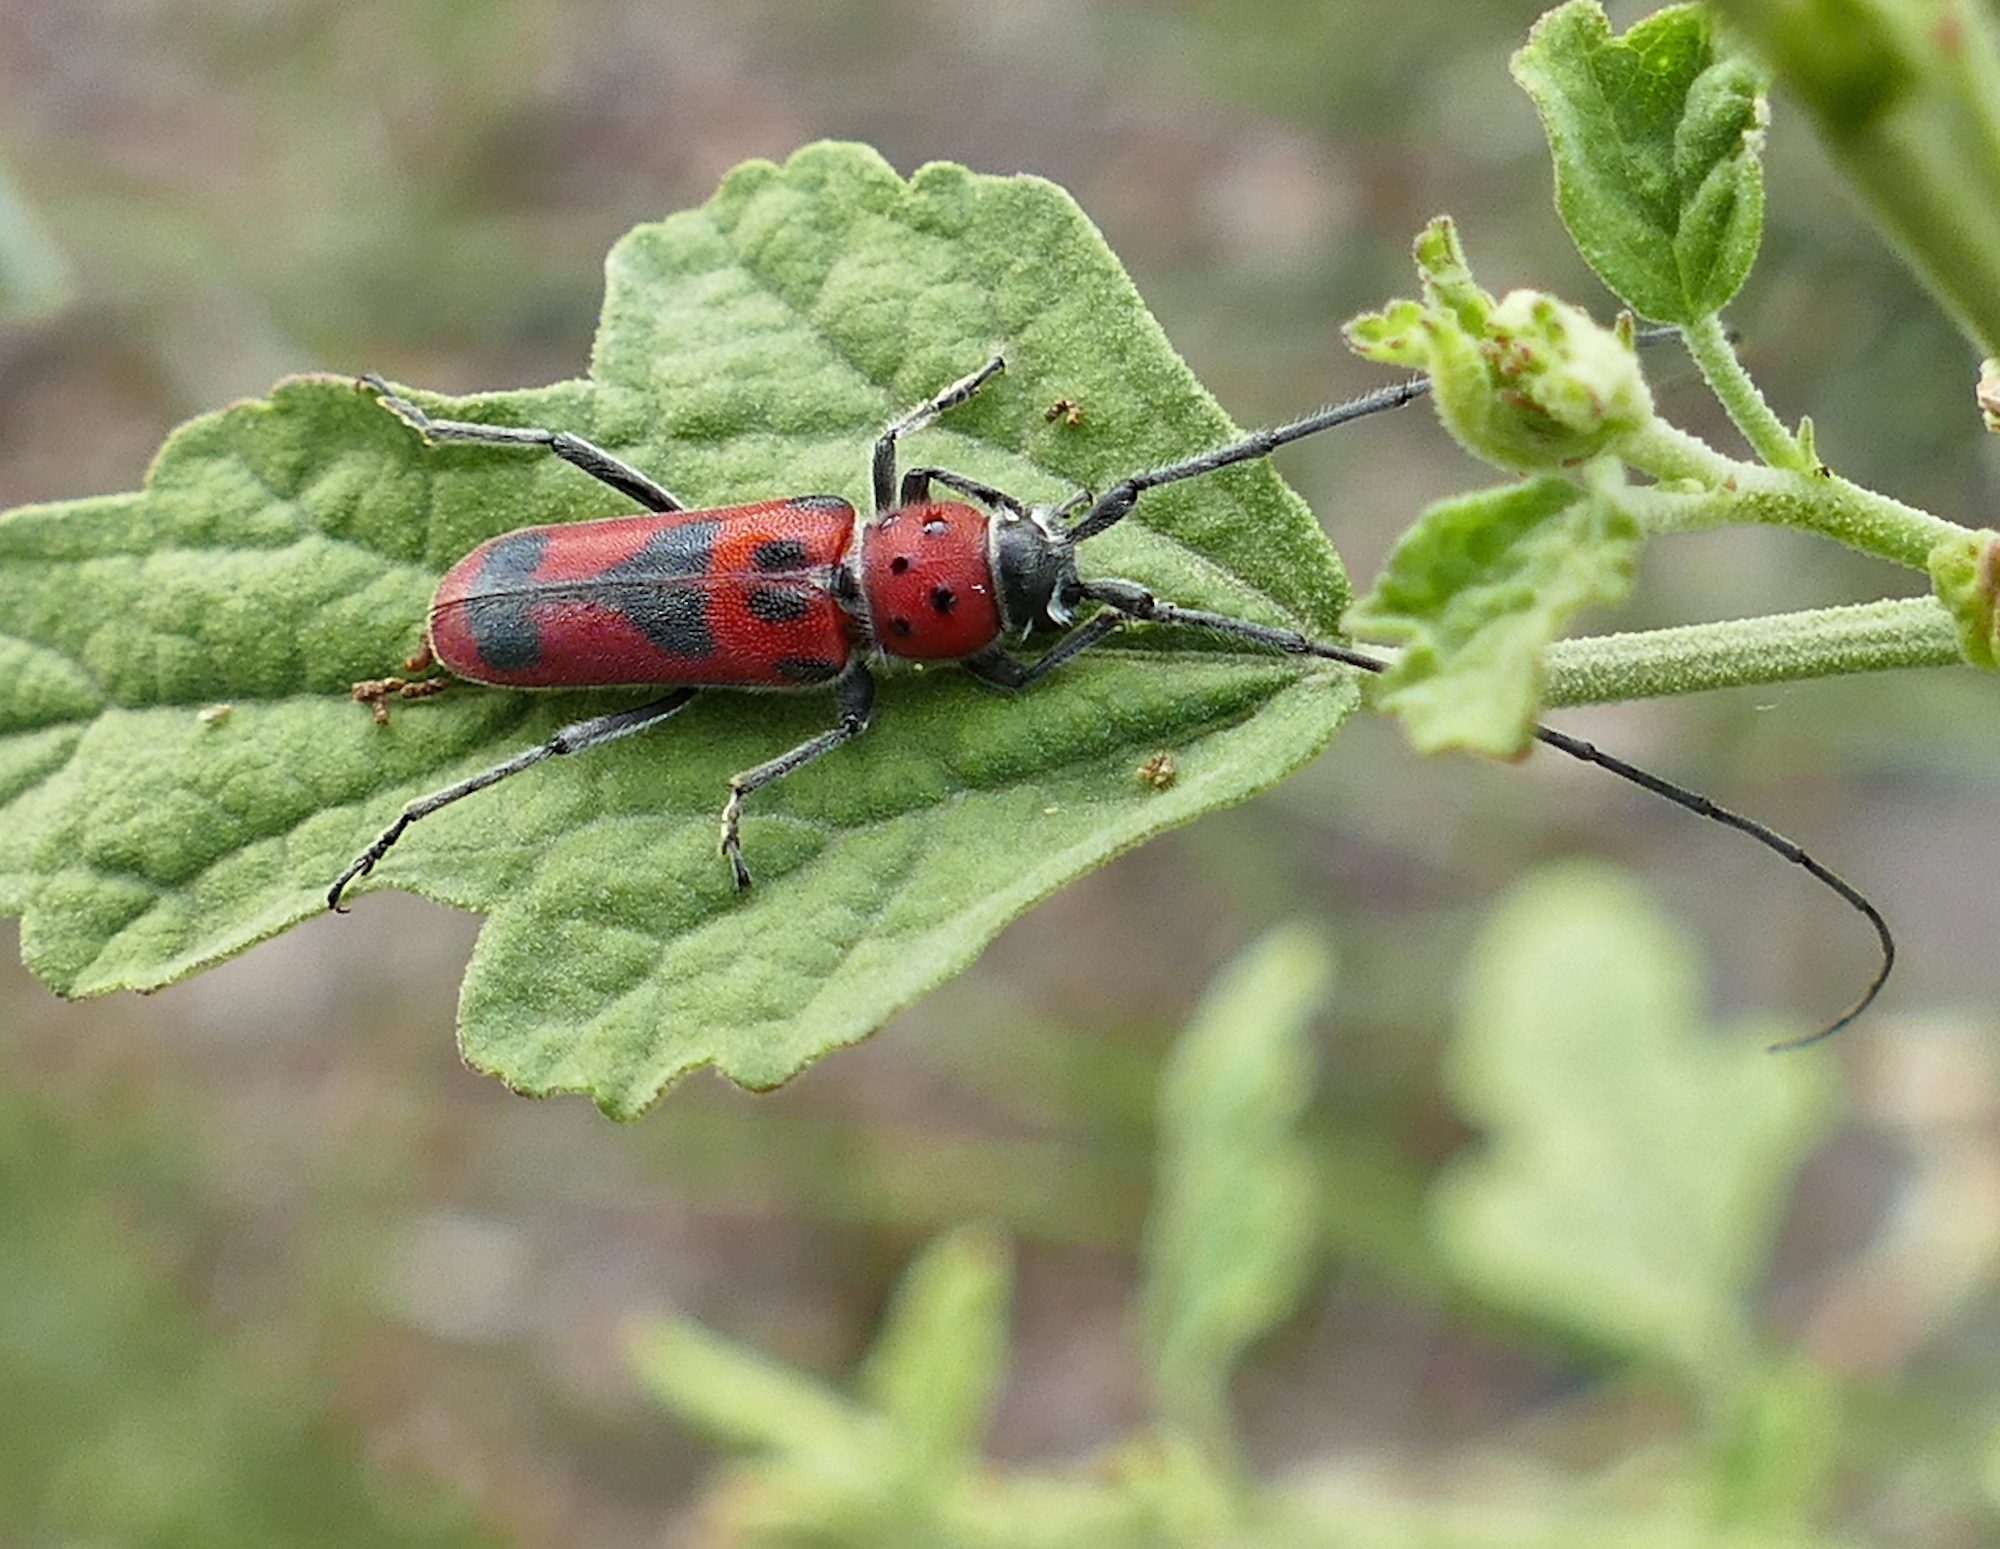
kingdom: Animalia
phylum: Arthropoda
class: Insecta
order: Coleoptera
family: Cerambycidae
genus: Tylosis
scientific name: Tylosis maculatus
